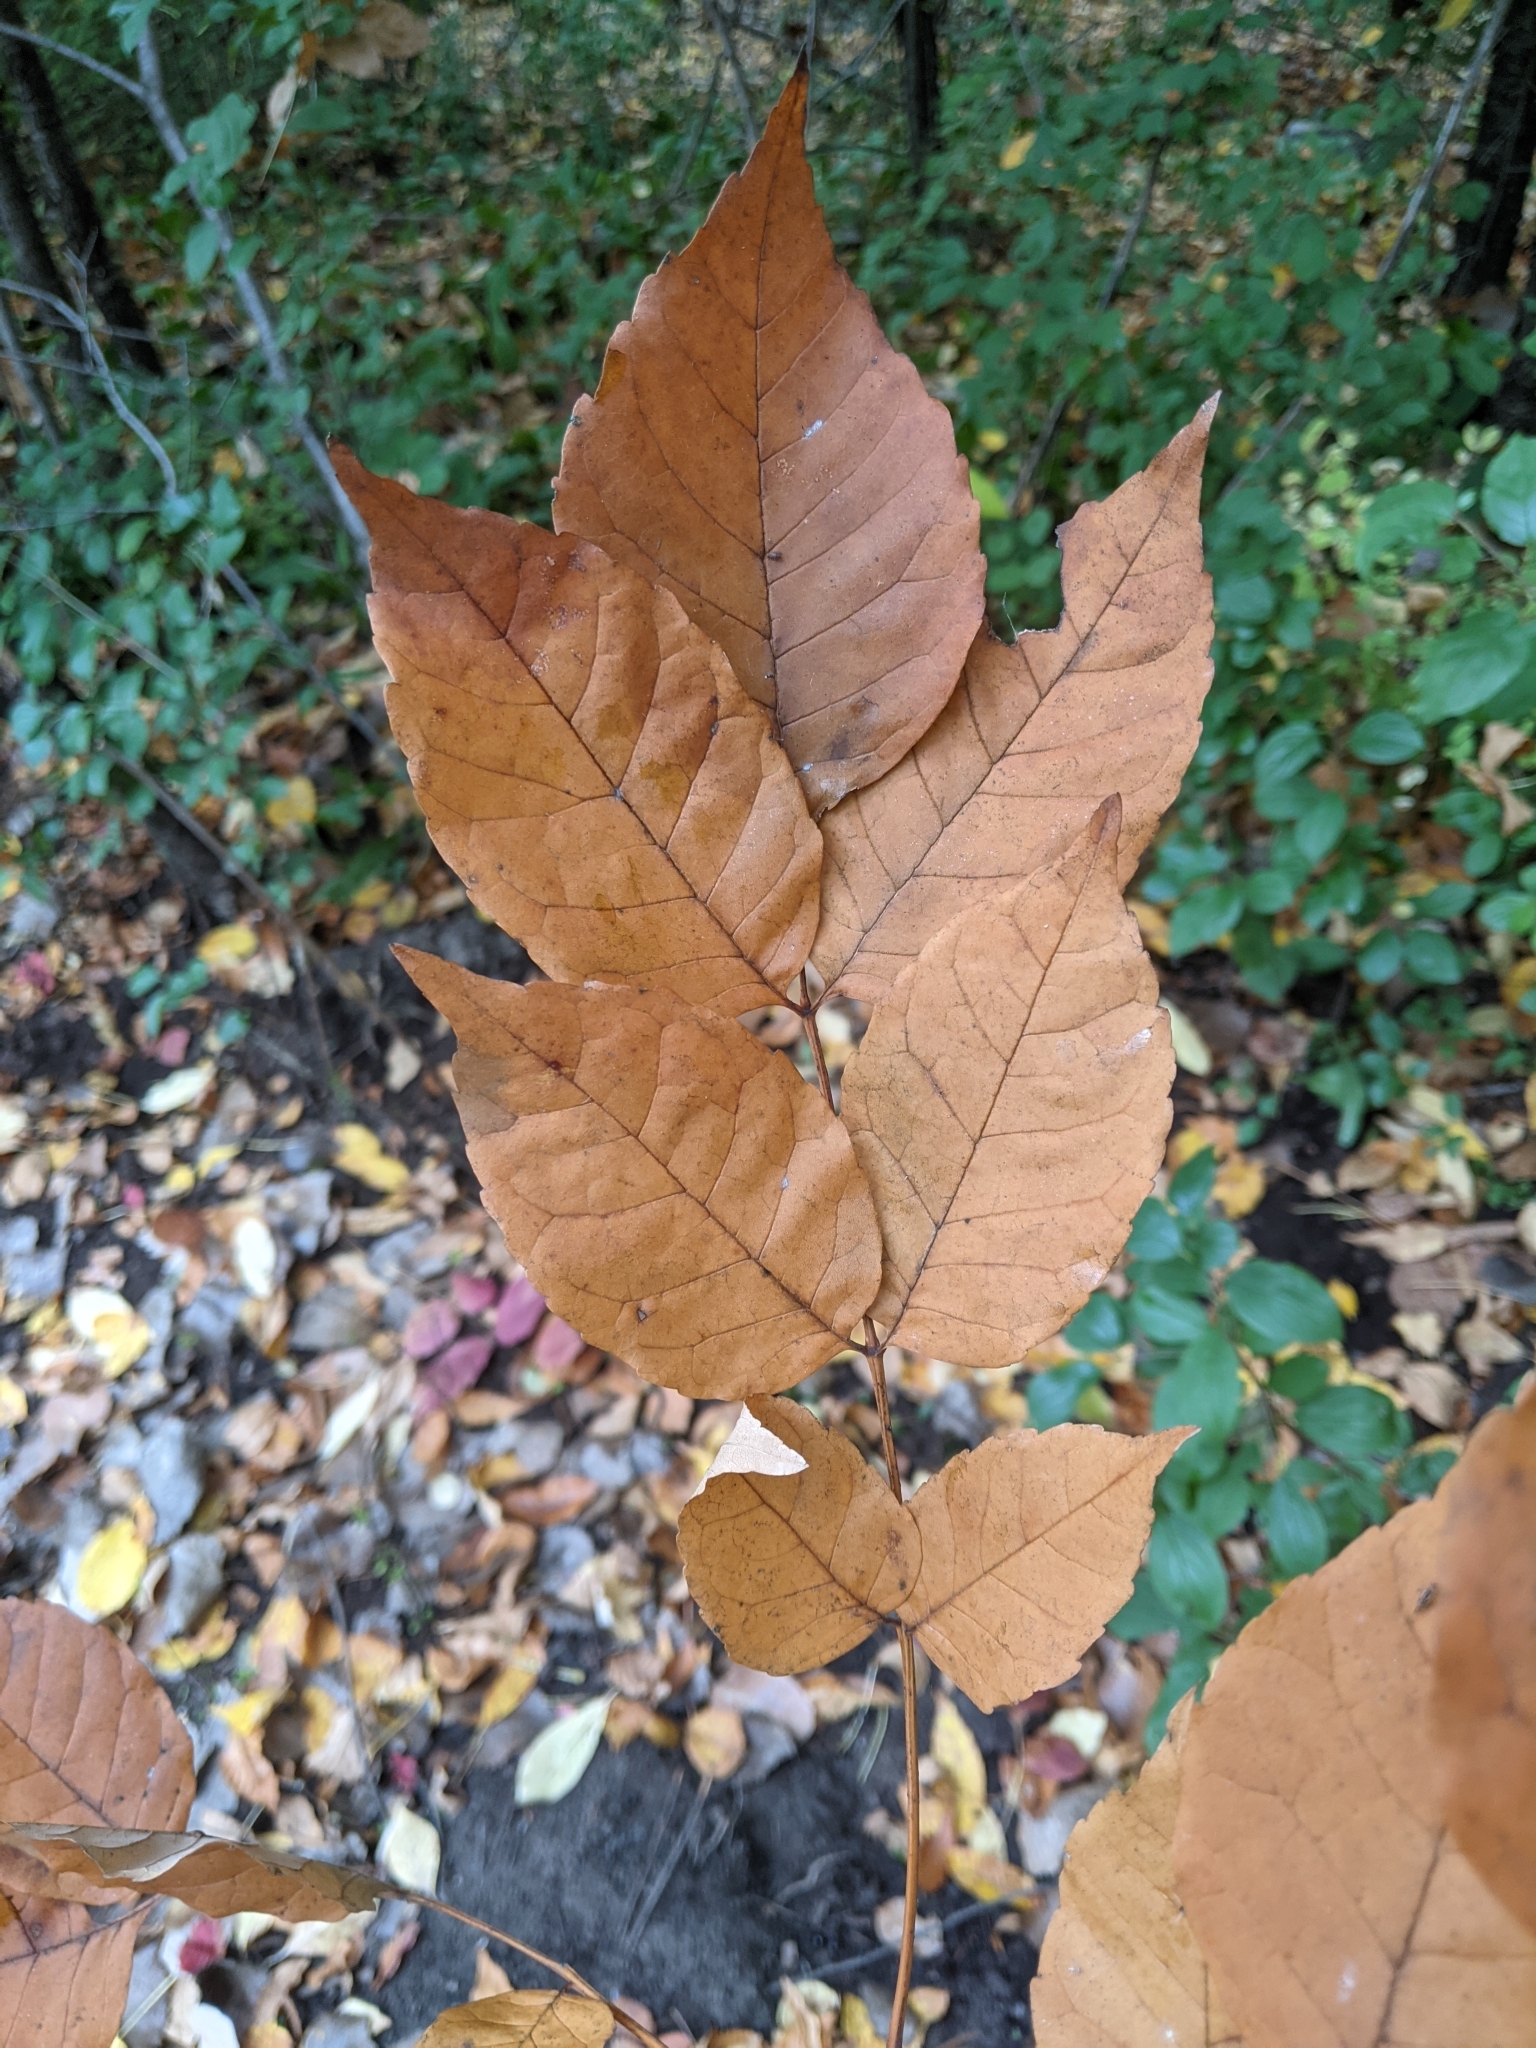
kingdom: Plantae
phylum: Tracheophyta
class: Magnoliopsida
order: Lamiales
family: Oleaceae
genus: Fraxinus
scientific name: Fraxinus americana
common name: White ash
